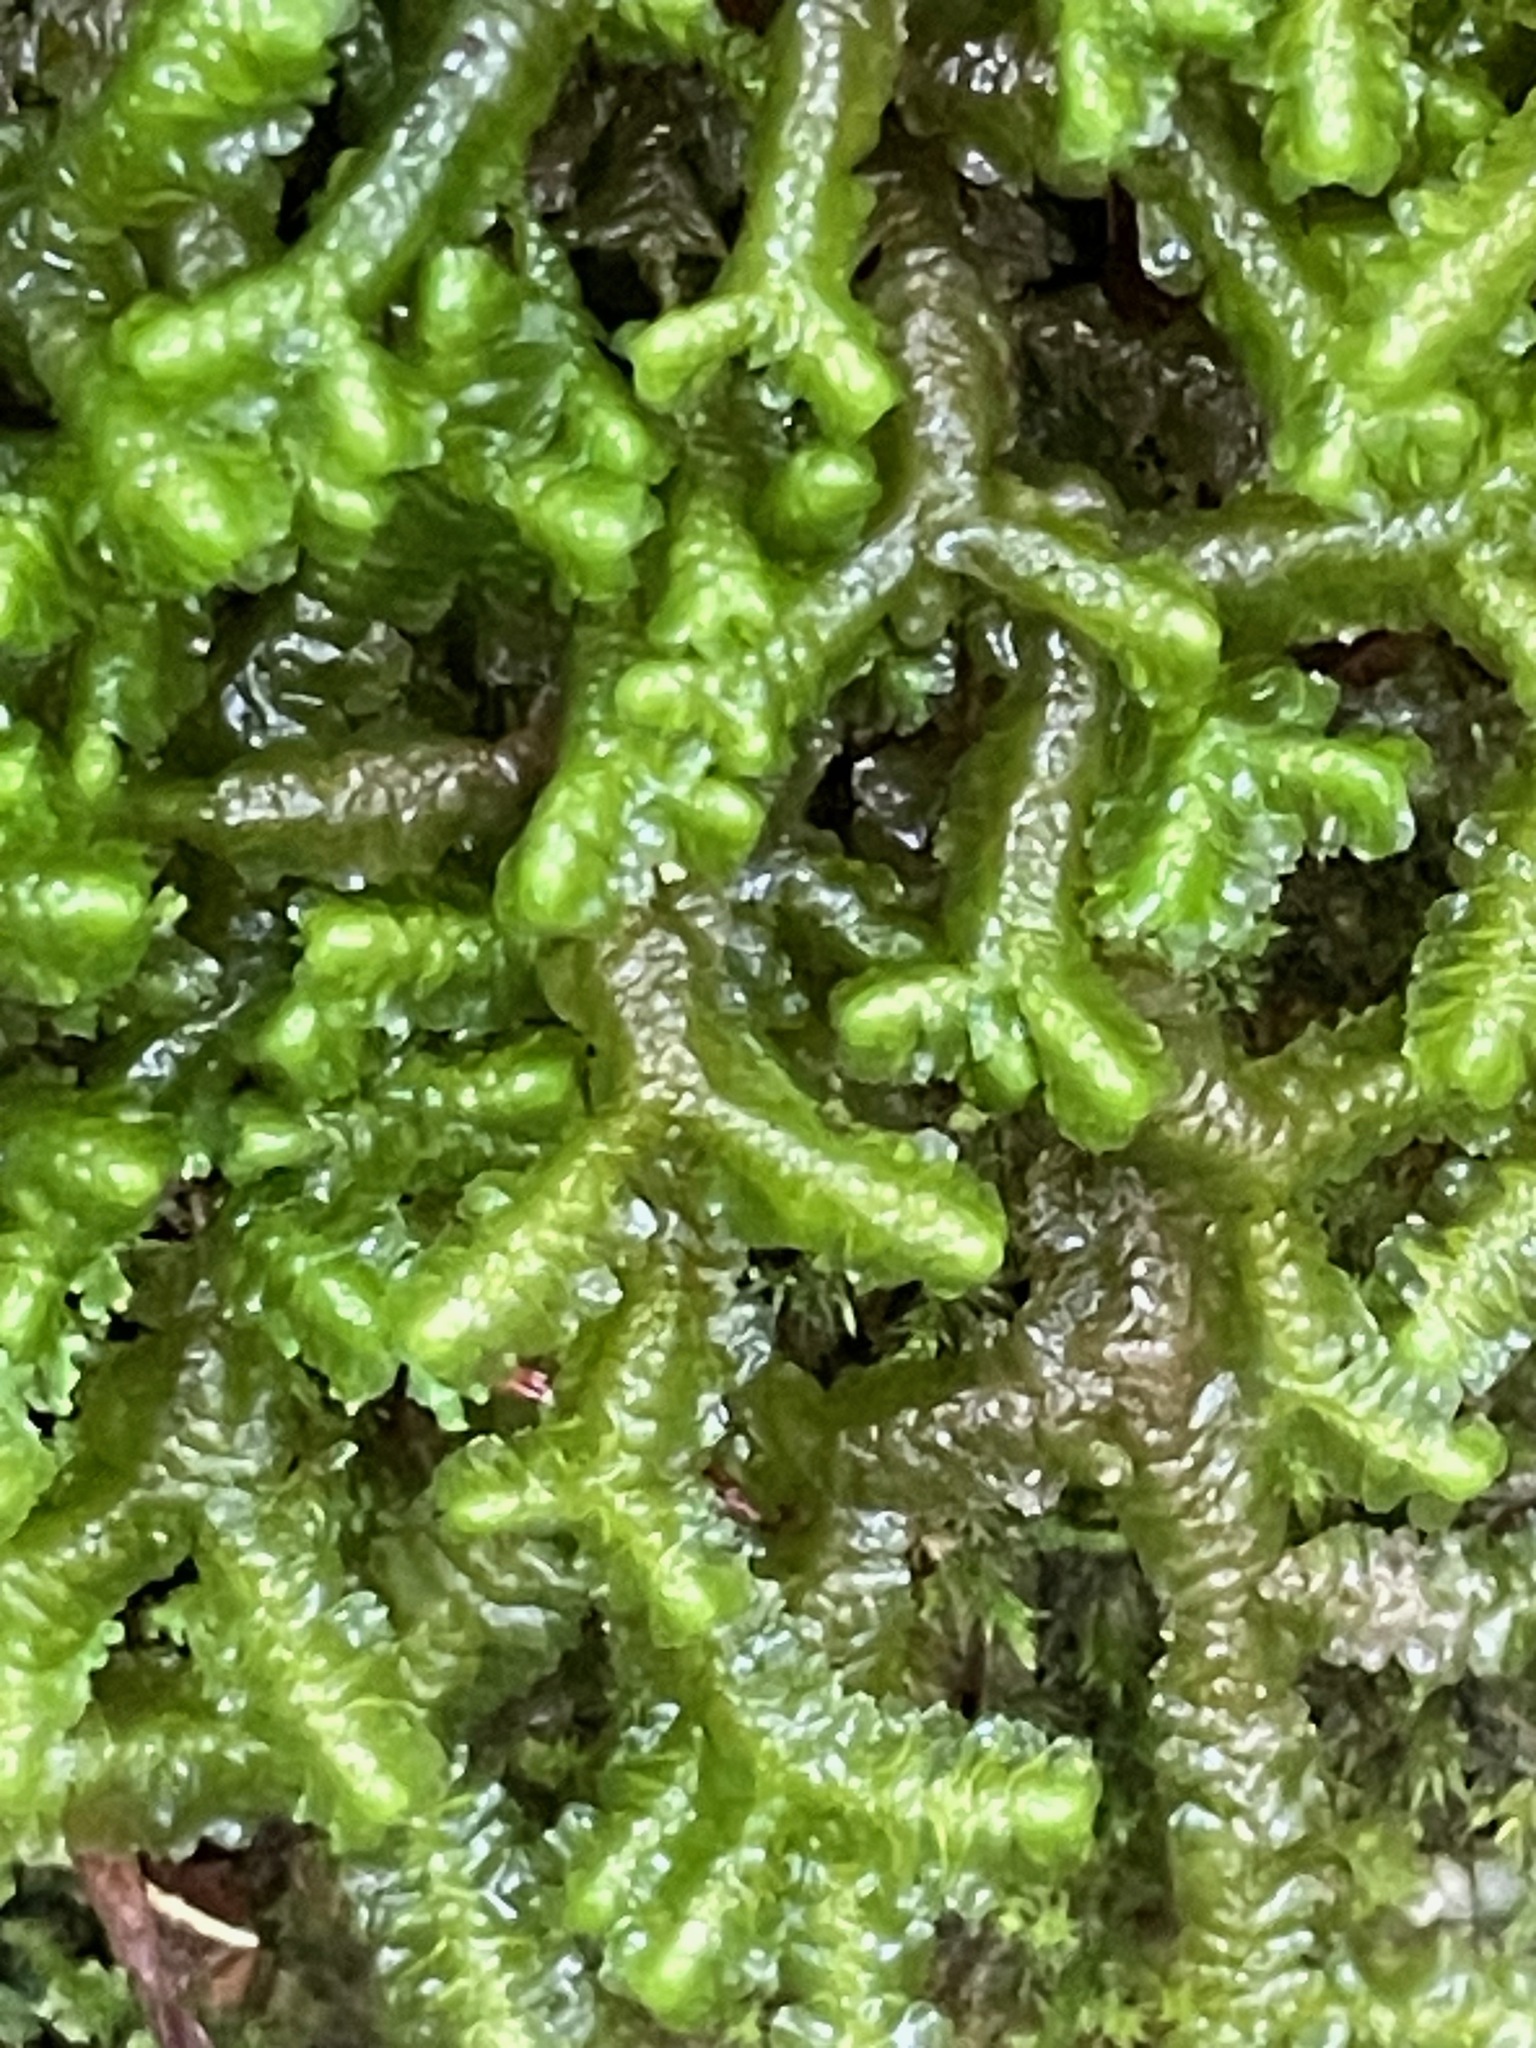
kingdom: Plantae
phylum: Marchantiophyta
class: Jungermanniopsida
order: Jungermanniales
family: Lepidoziaceae
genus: Bazzania
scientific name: Bazzania trilobata
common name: Three-lobed whipwort
